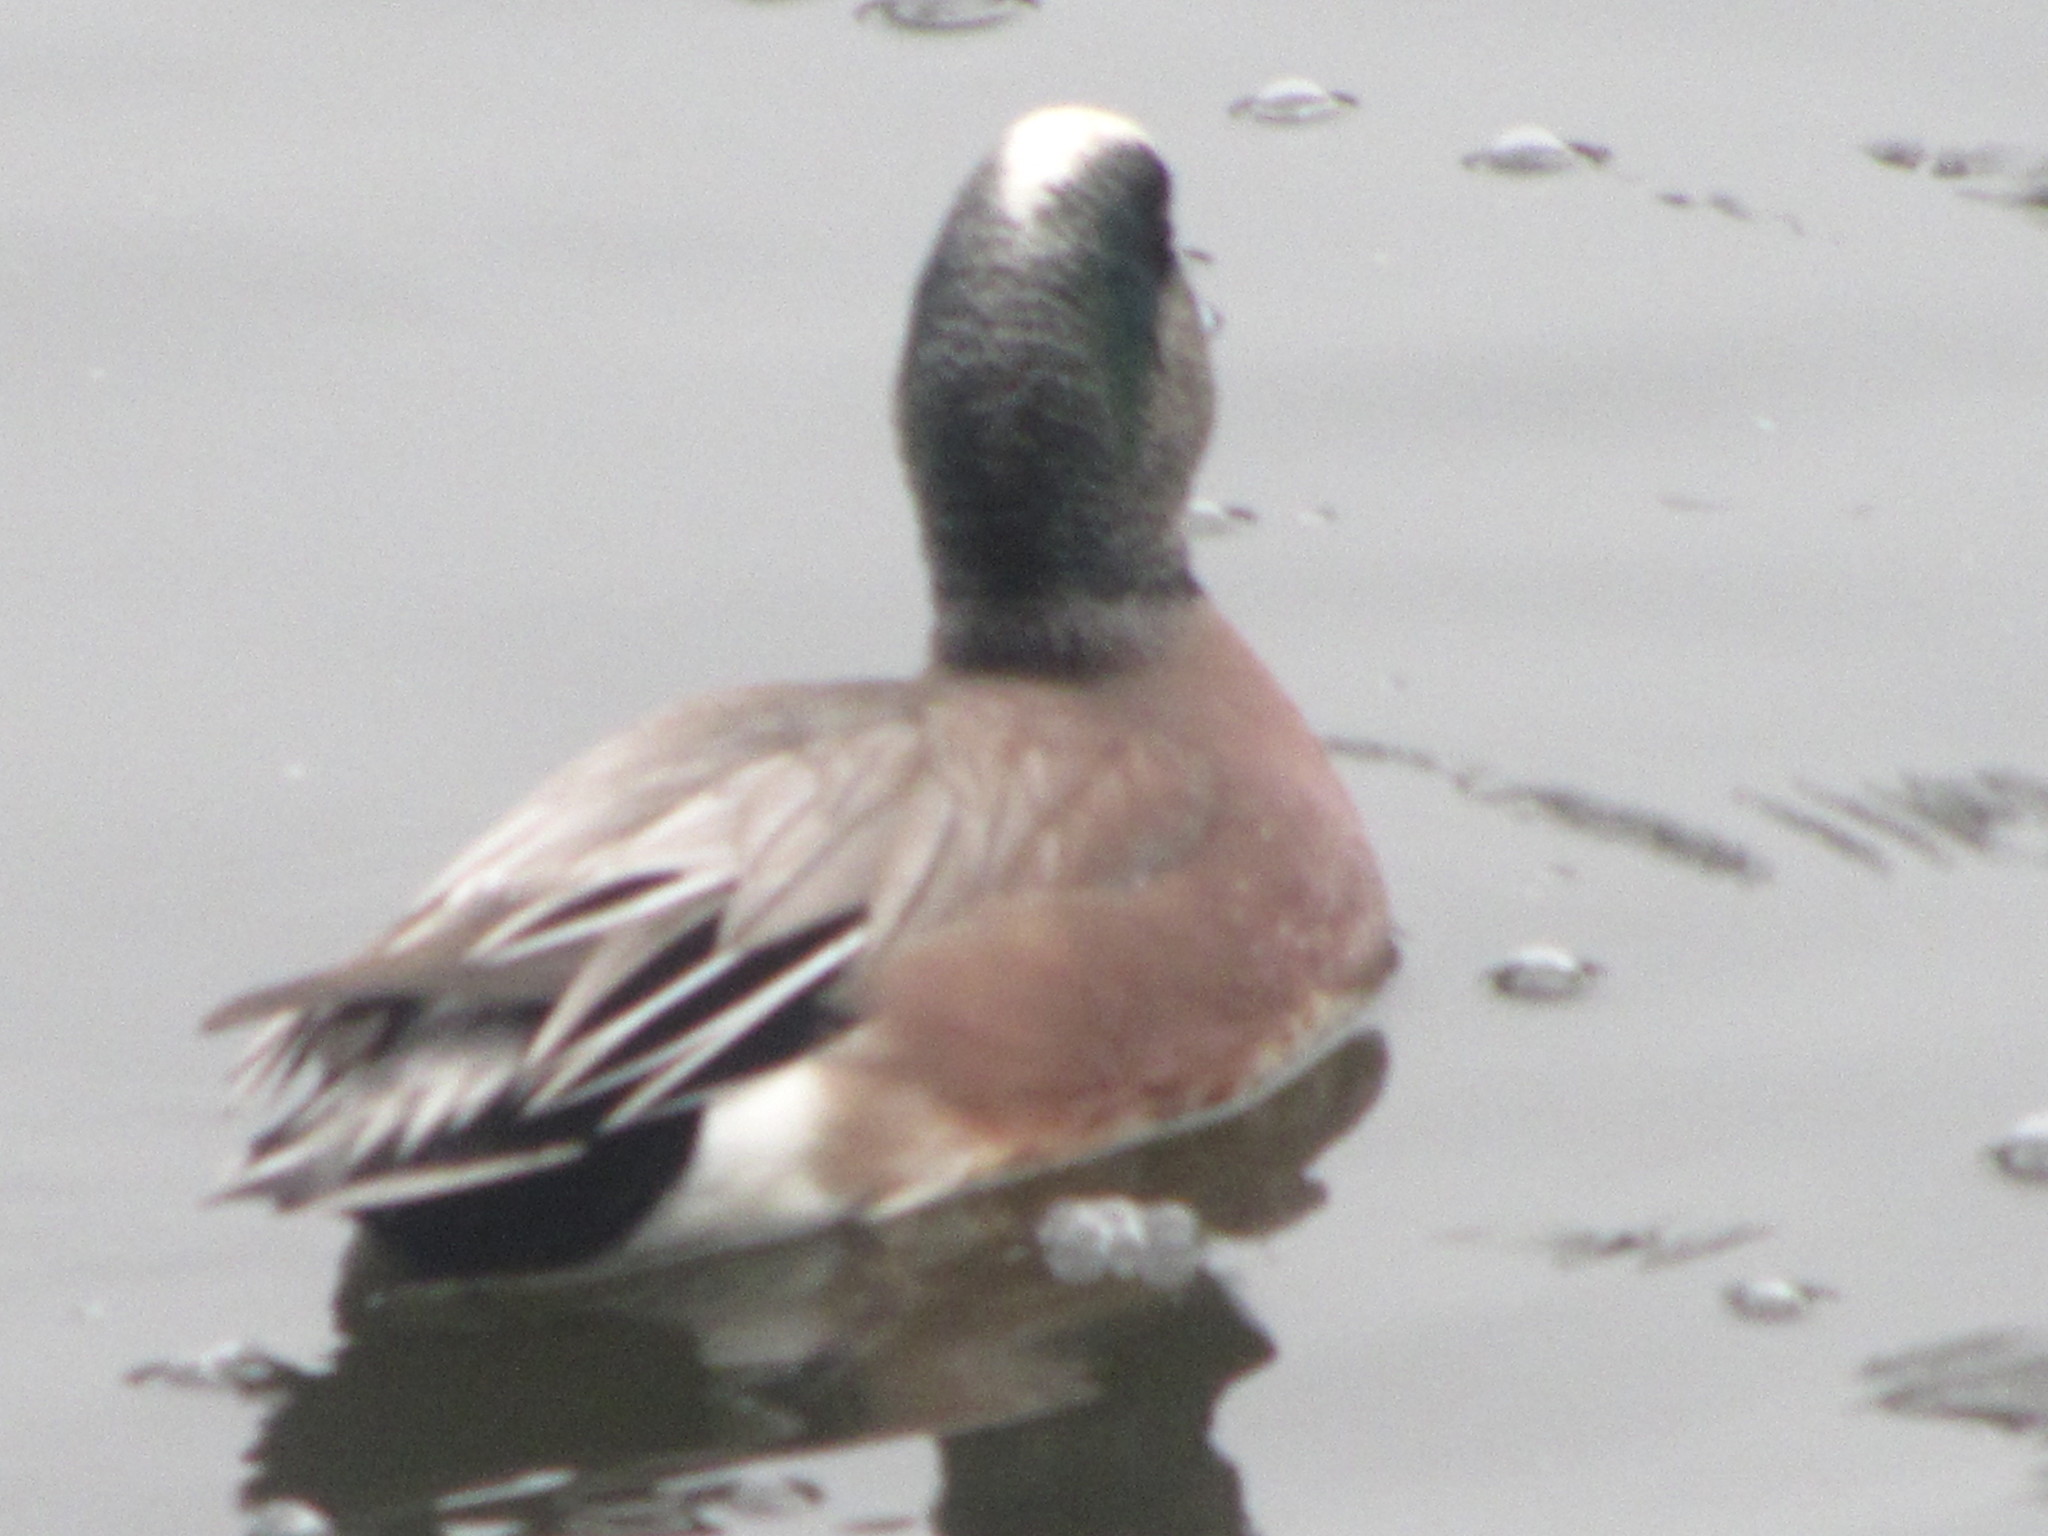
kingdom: Animalia
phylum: Chordata
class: Aves
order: Anseriformes
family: Anatidae
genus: Mareca
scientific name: Mareca americana
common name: American wigeon
